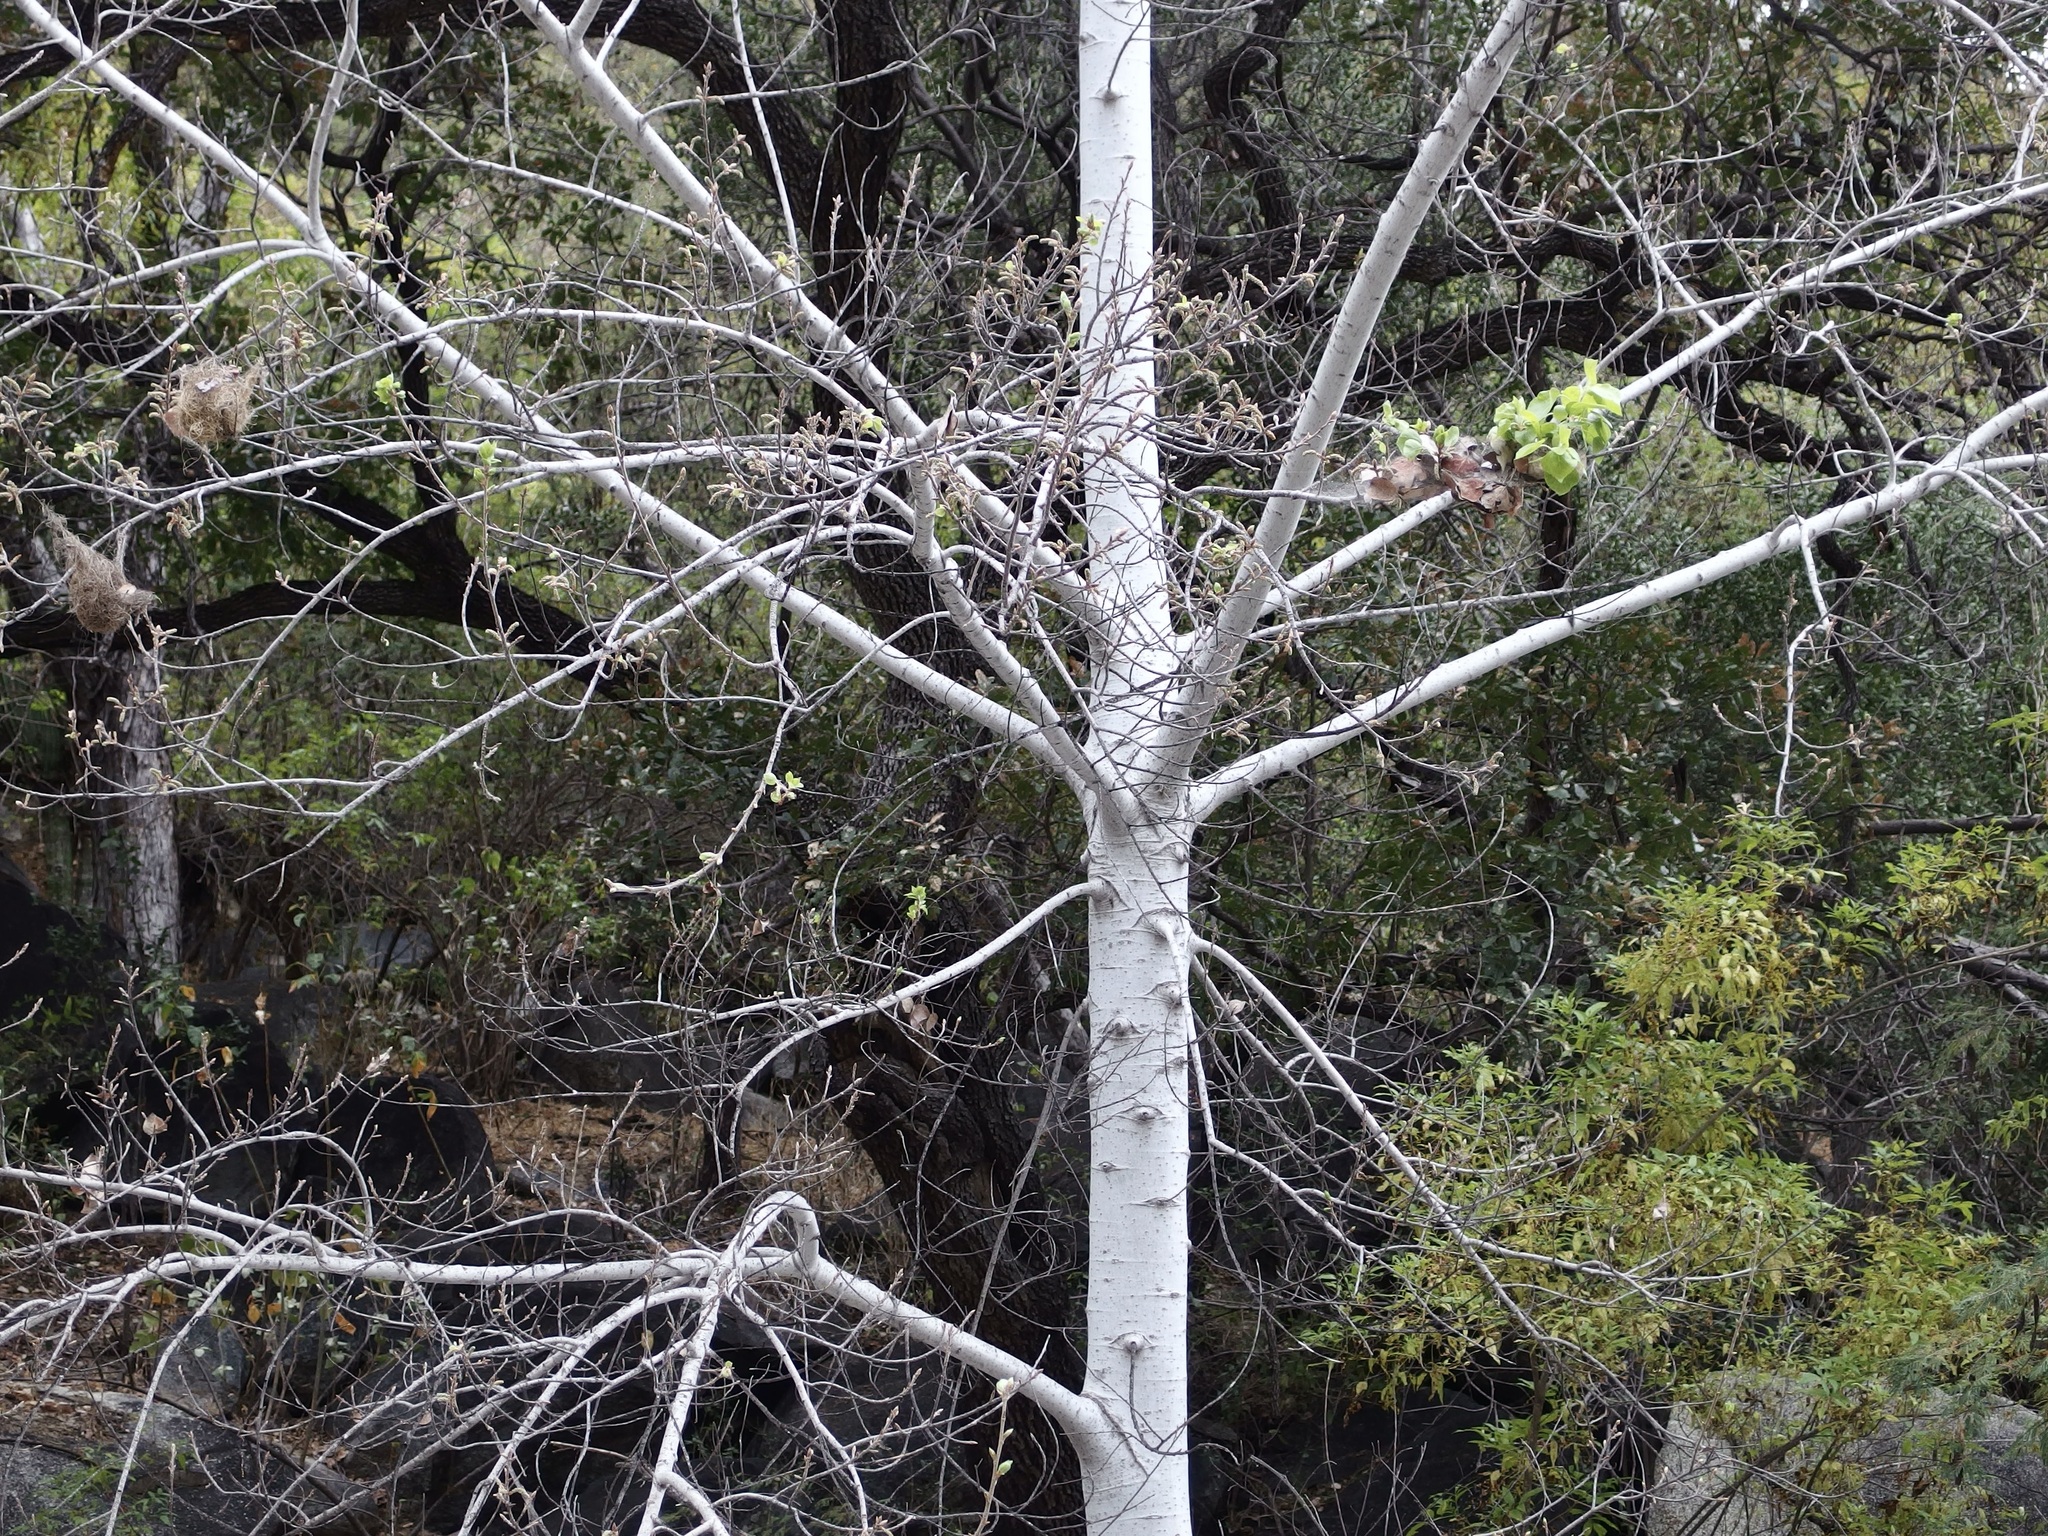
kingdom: Plantae
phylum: Tracheophyta
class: Magnoliopsida
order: Malpighiales
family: Salicaceae
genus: Populus
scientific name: Populus brandegeei
